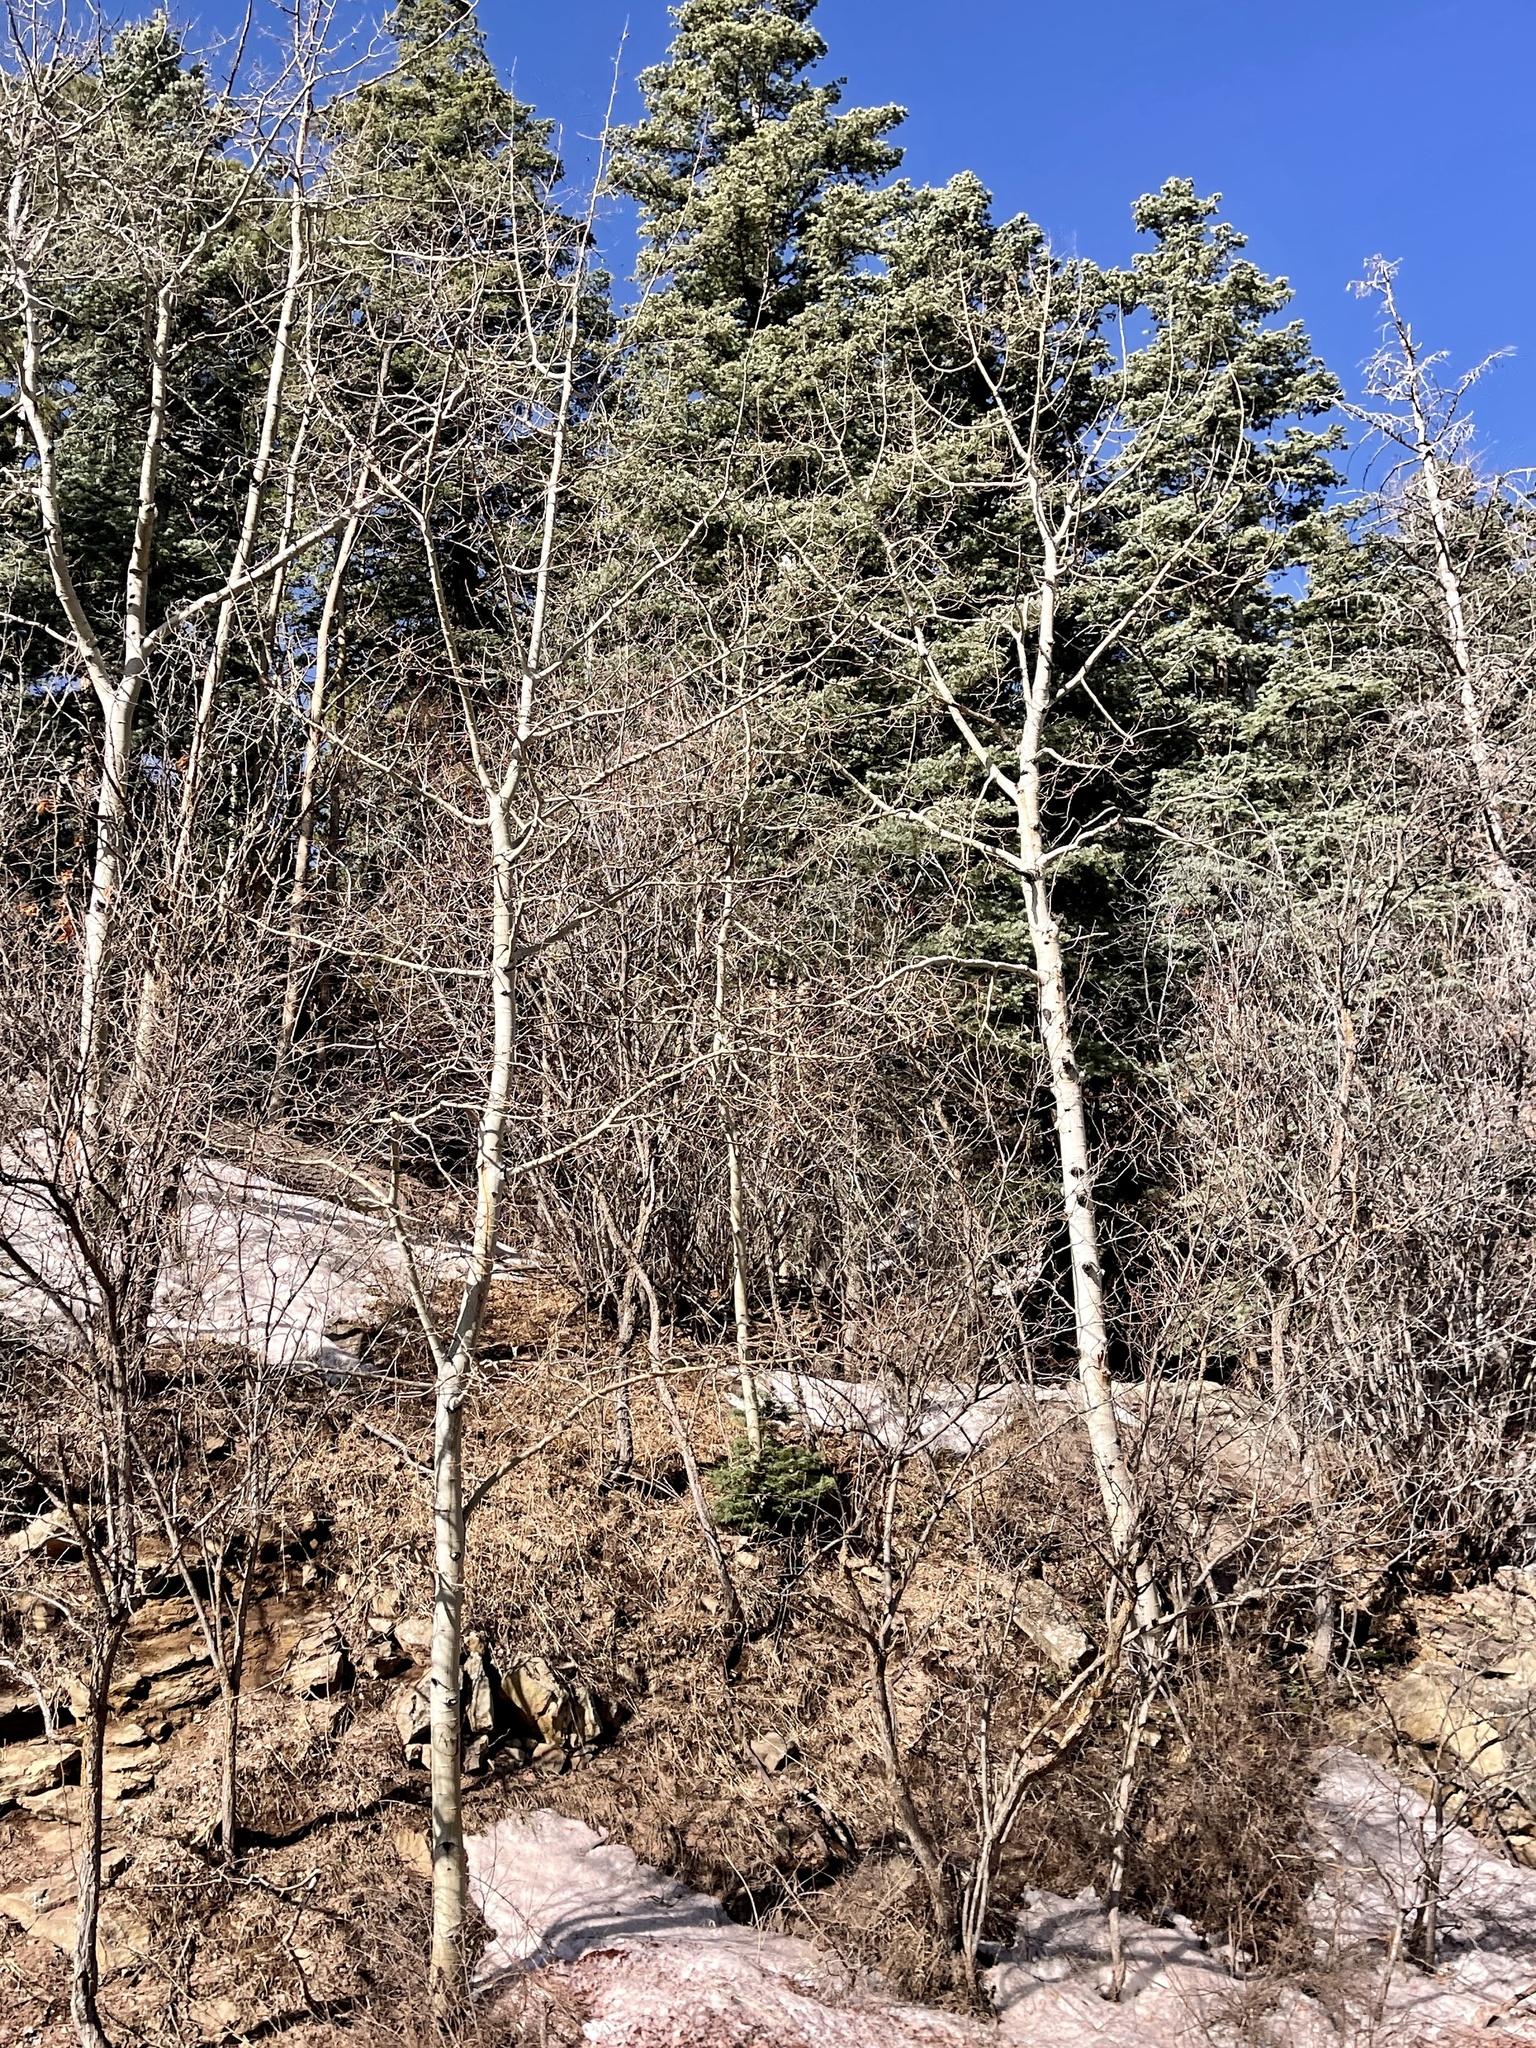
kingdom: Plantae
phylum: Tracheophyta
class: Magnoliopsida
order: Malpighiales
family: Salicaceae
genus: Populus
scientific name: Populus tremuloides
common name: Quaking aspen
